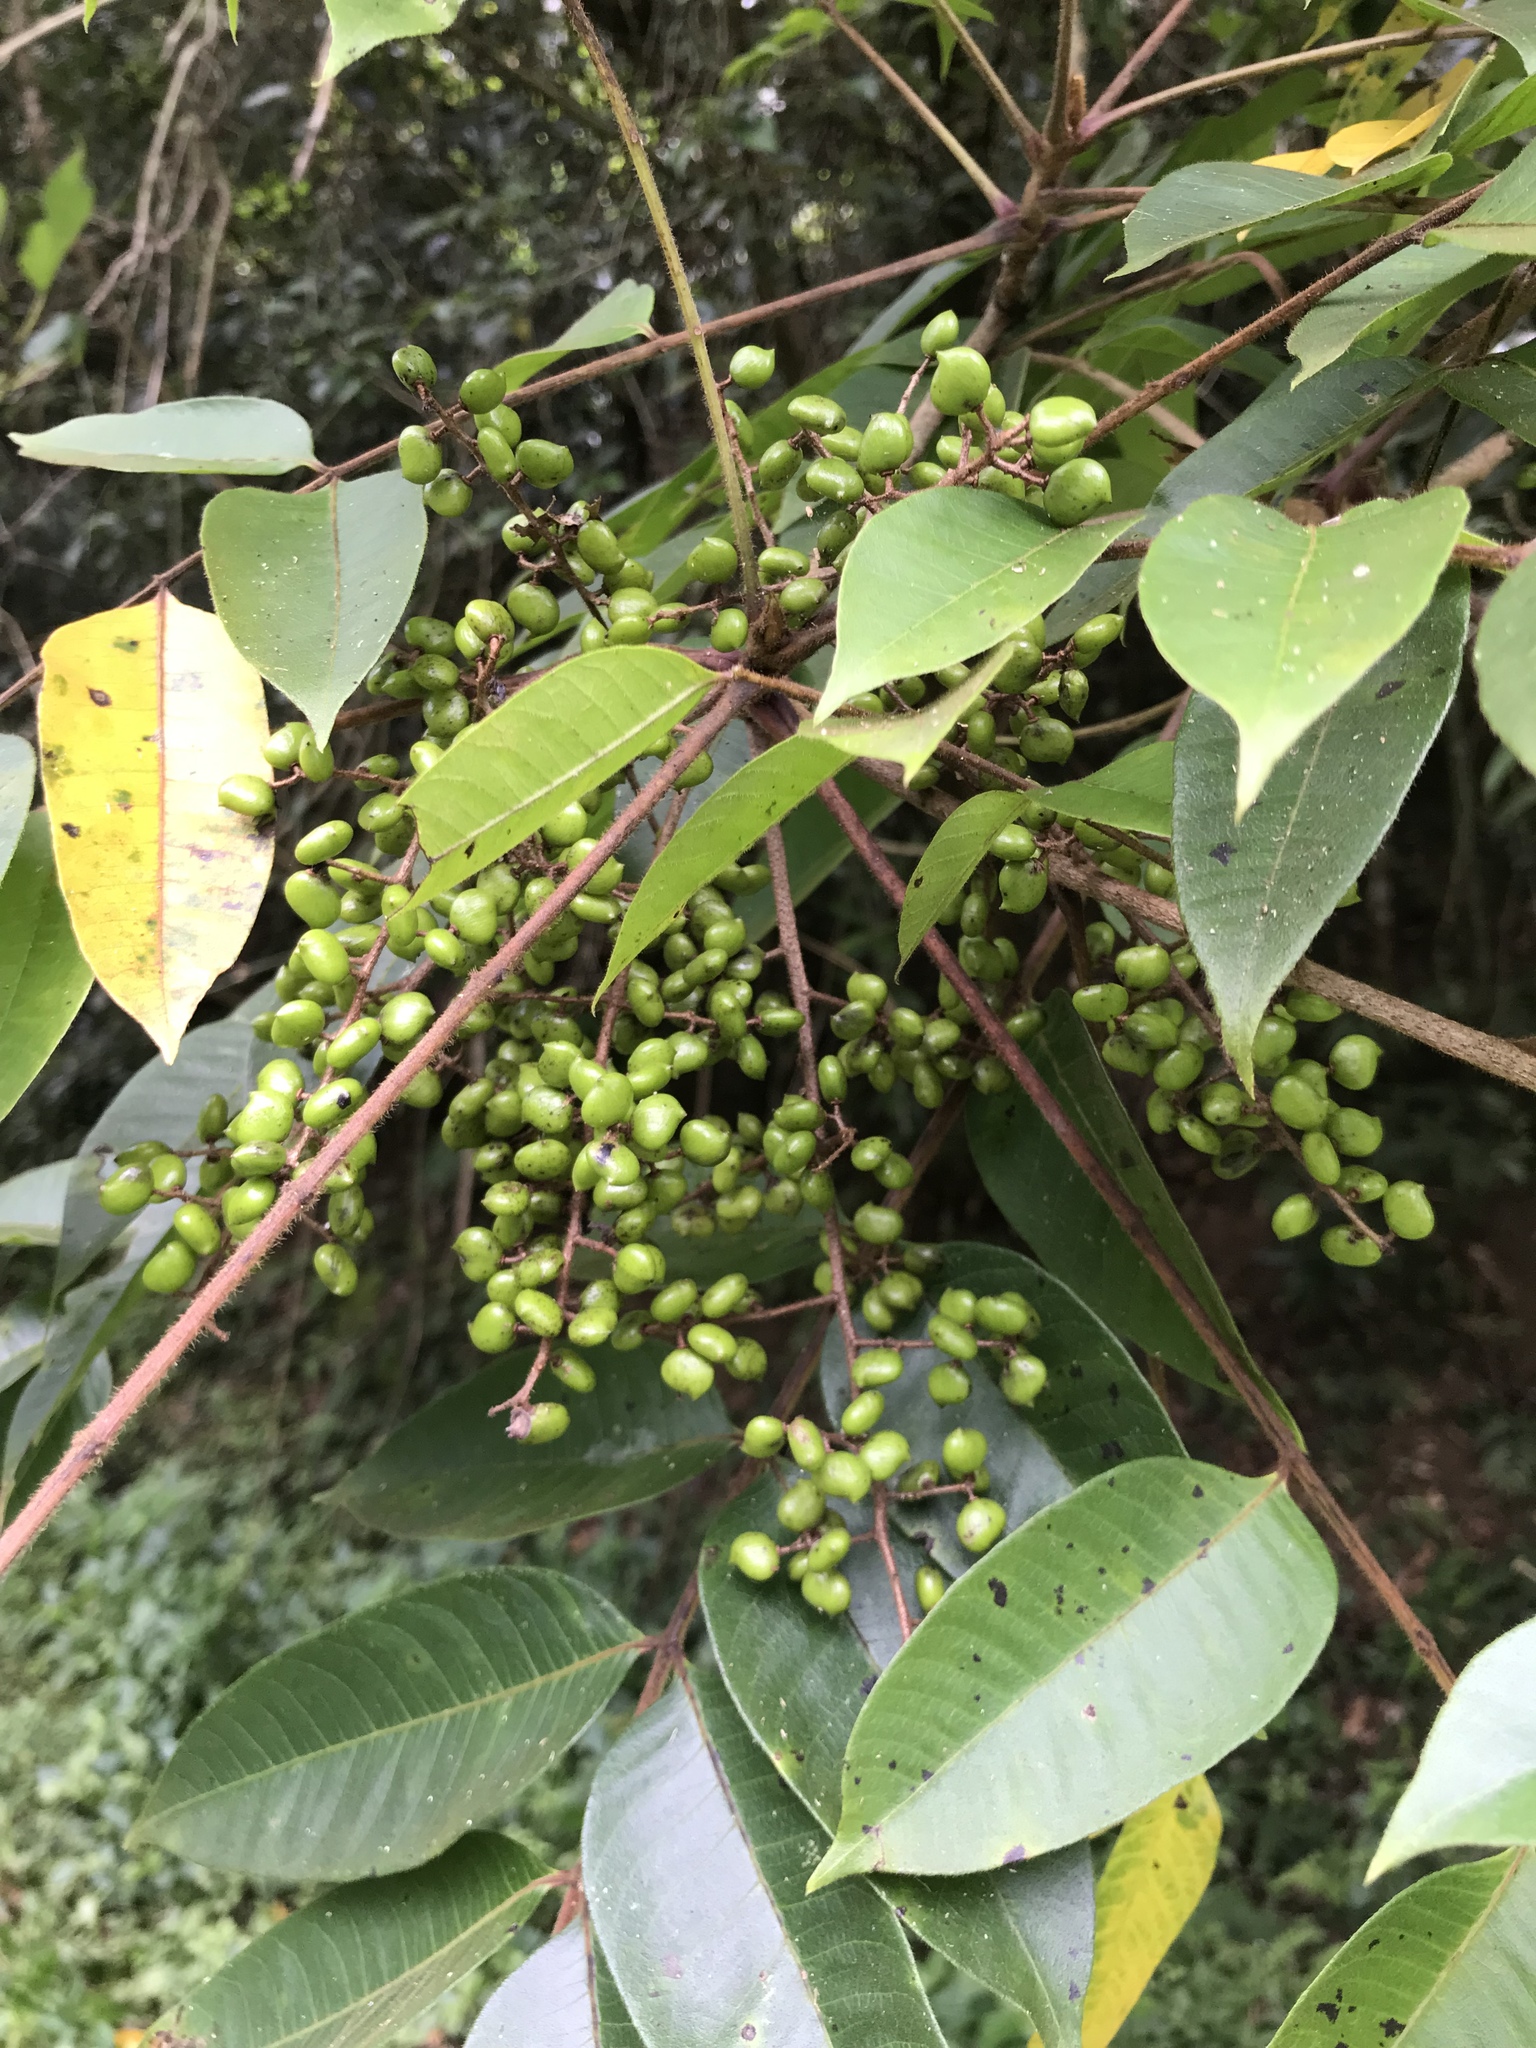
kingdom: Plantae
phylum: Tracheophyta
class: Magnoliopsida
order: Sapindales
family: Anacardiaceae
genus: Toxicodendron
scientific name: Toxicodendron sylvestre
